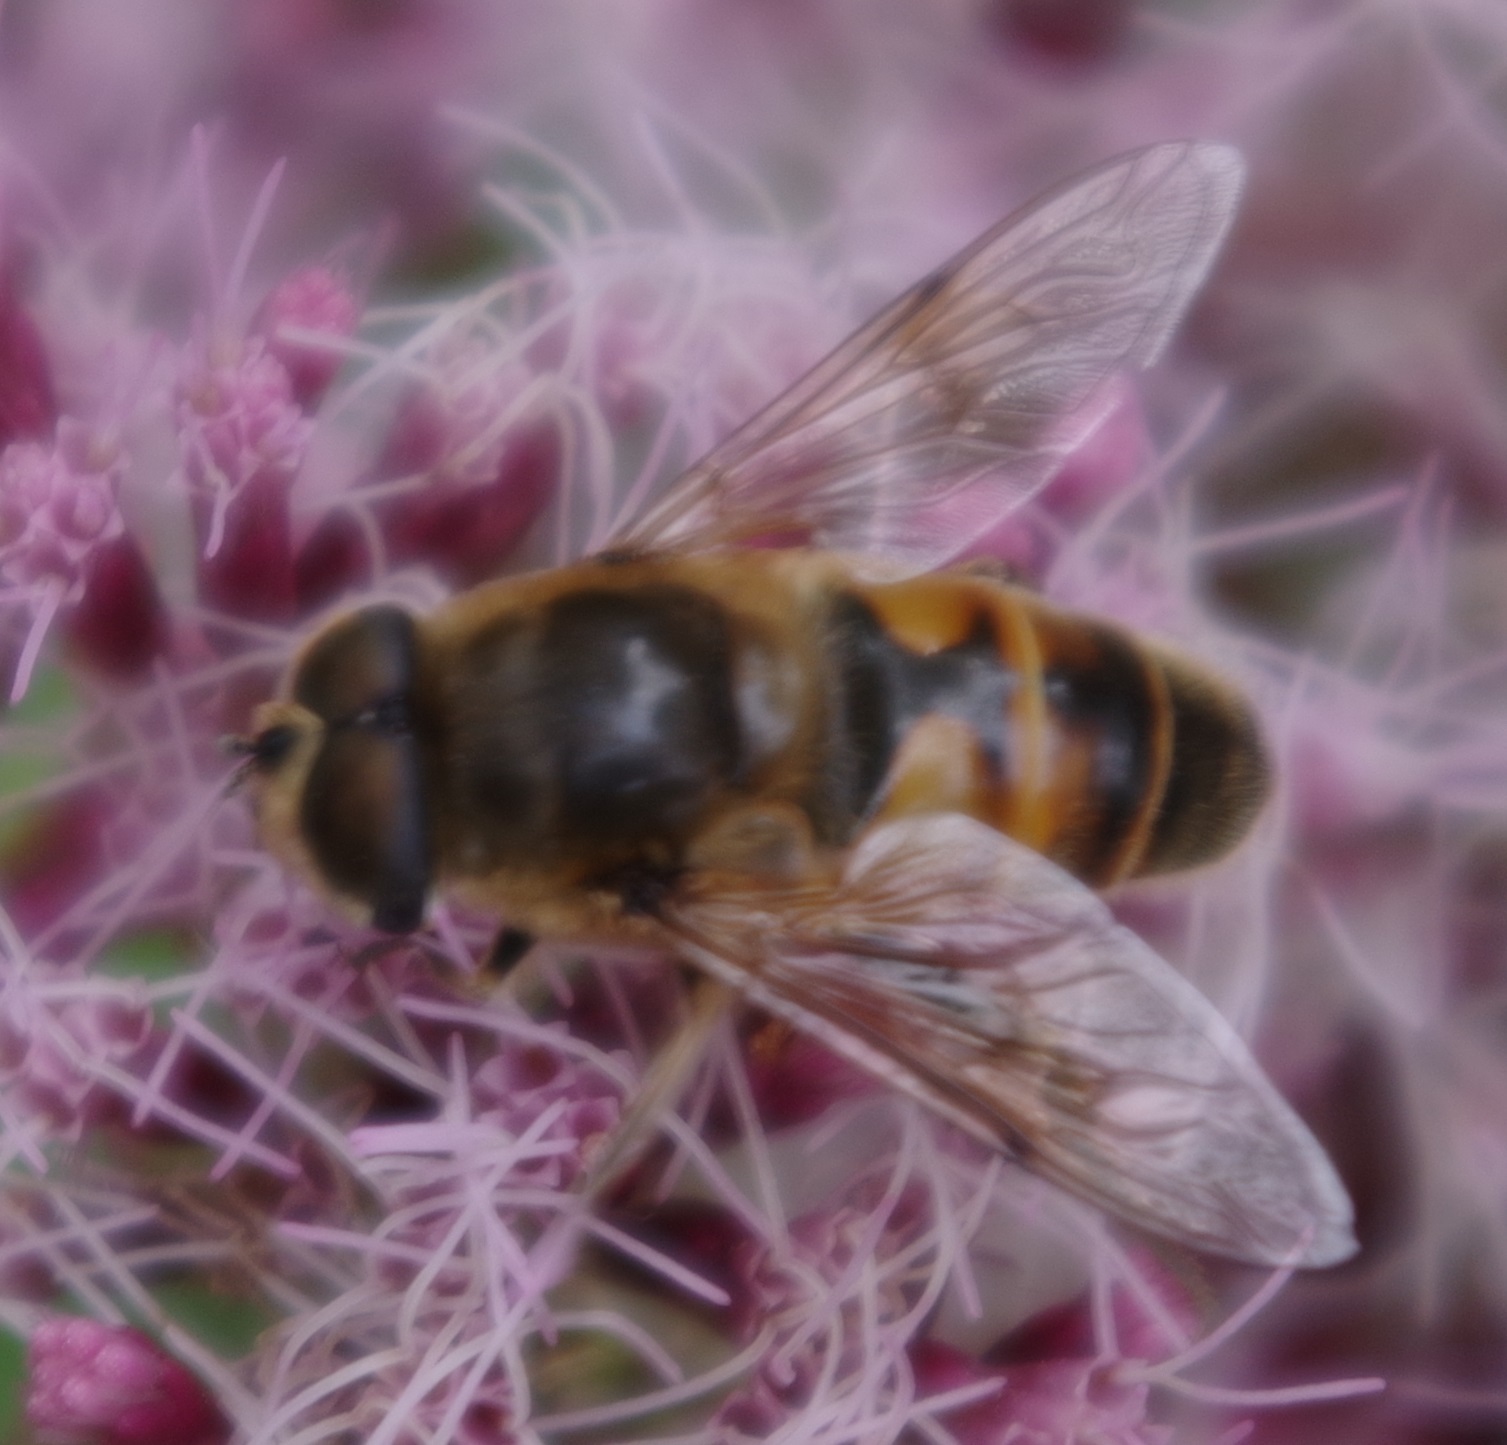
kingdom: Animalia
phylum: Arthropoda
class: Insecta
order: Diptera
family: Syrphidae
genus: Eristalis
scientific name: Eristalis tenax
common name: Drone fly
